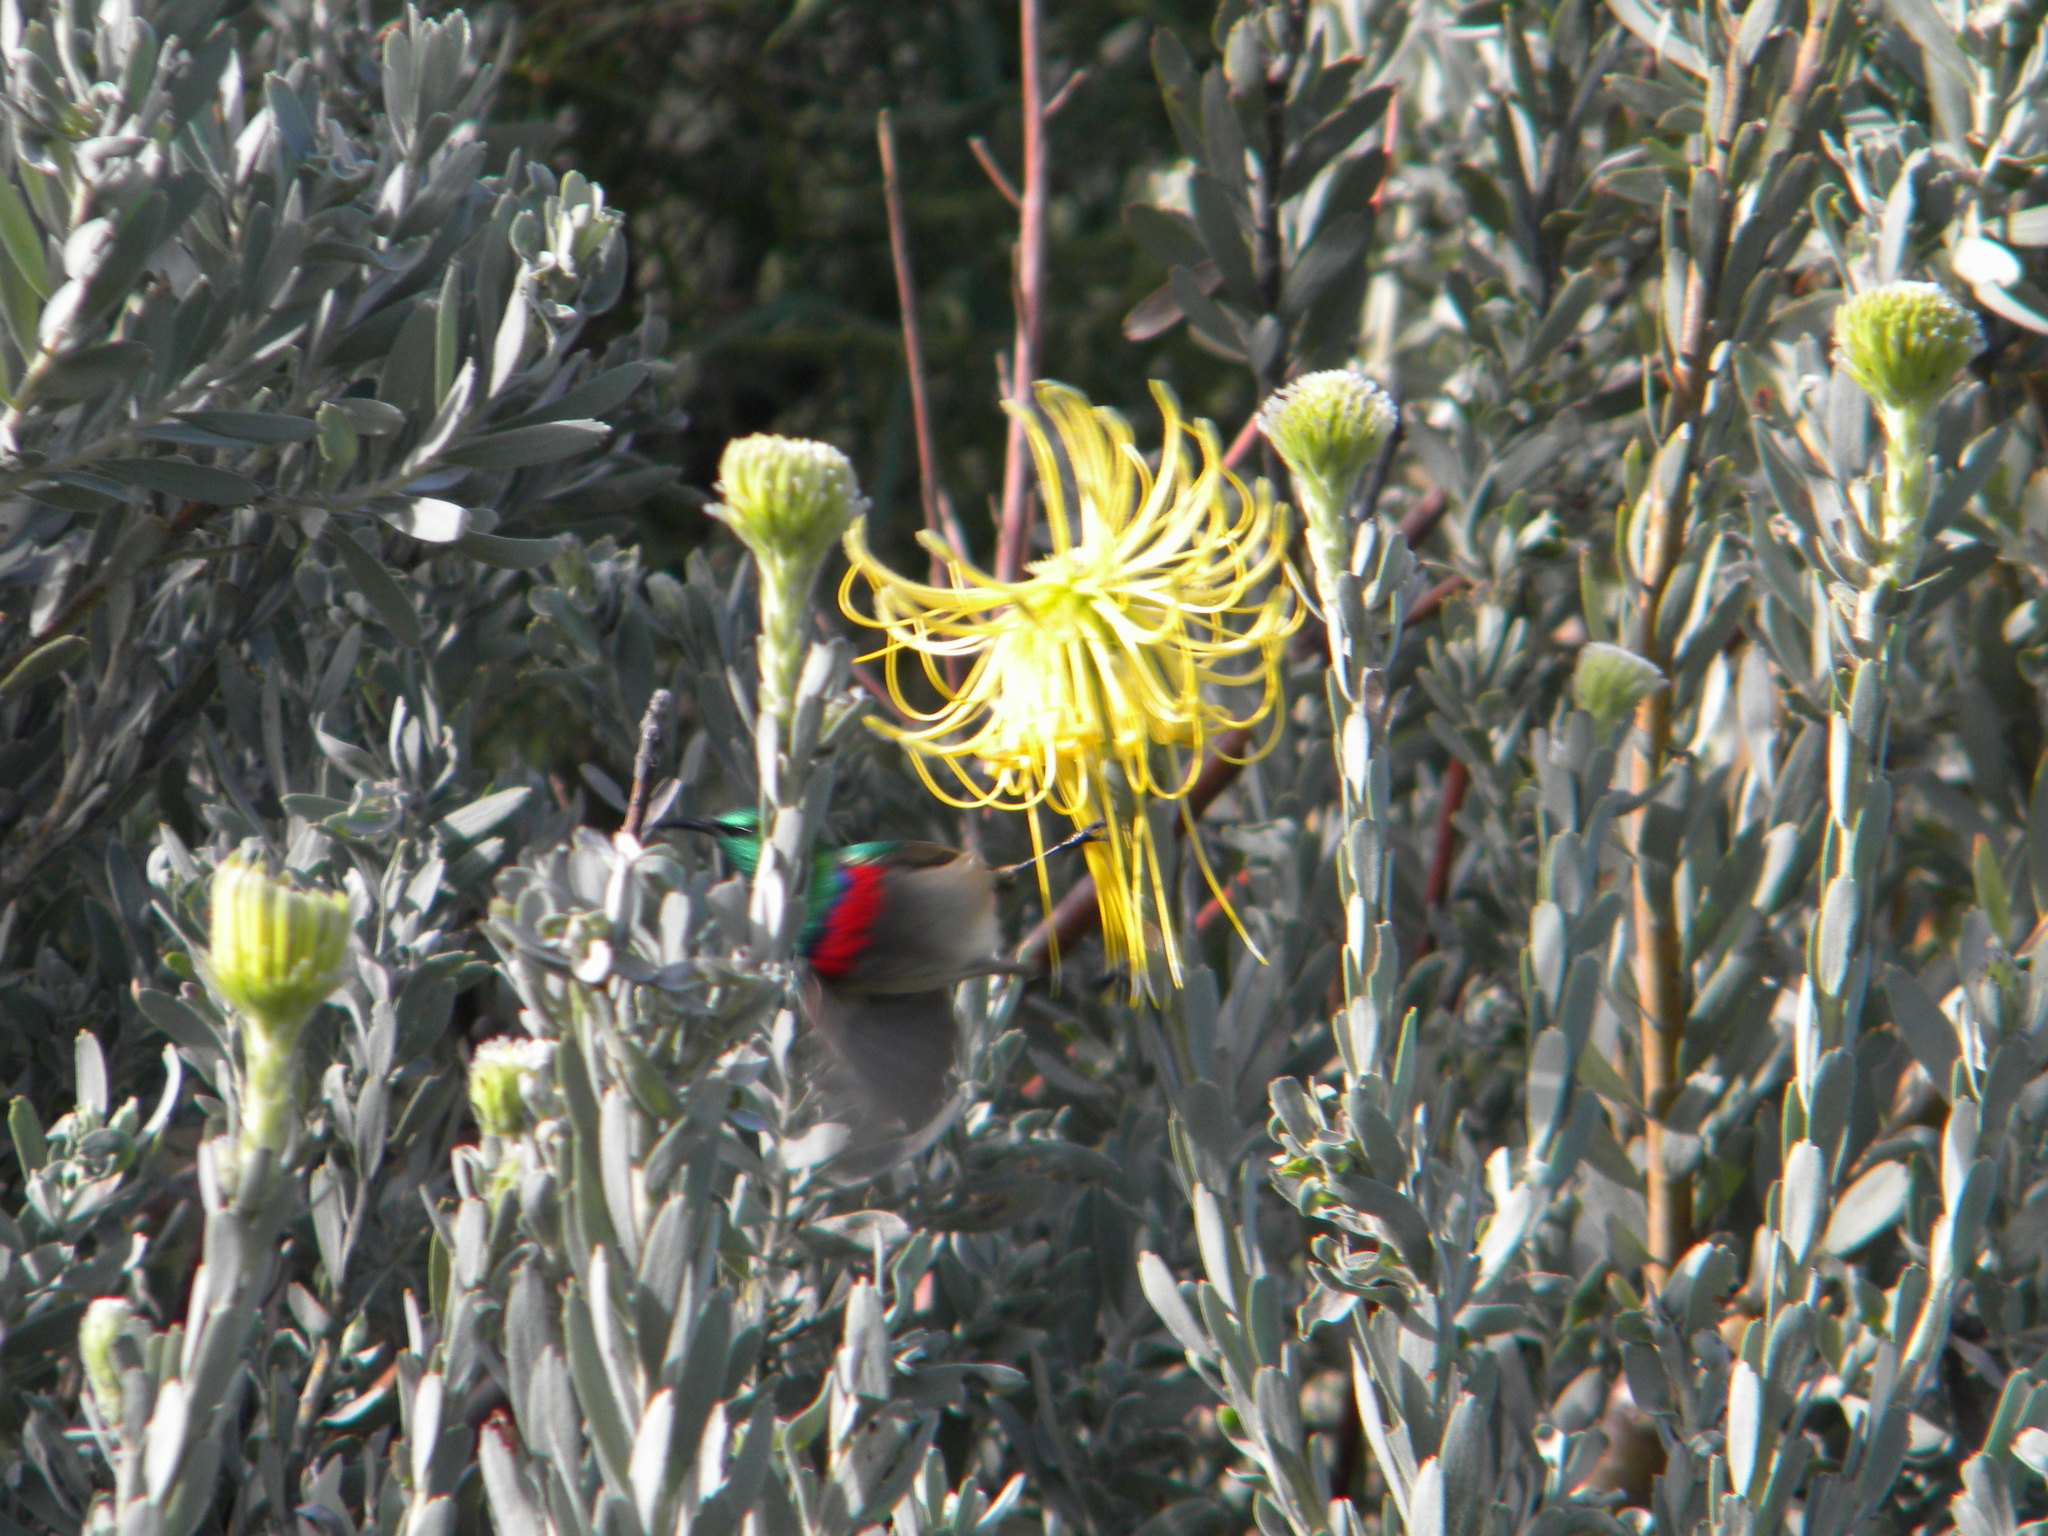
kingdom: Animalia
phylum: Chordata
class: Aves
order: Passeriformes
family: Nectariniidae
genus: Cinnyris
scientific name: Cinnyris chalybeus
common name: Southern double-collared sunbird
